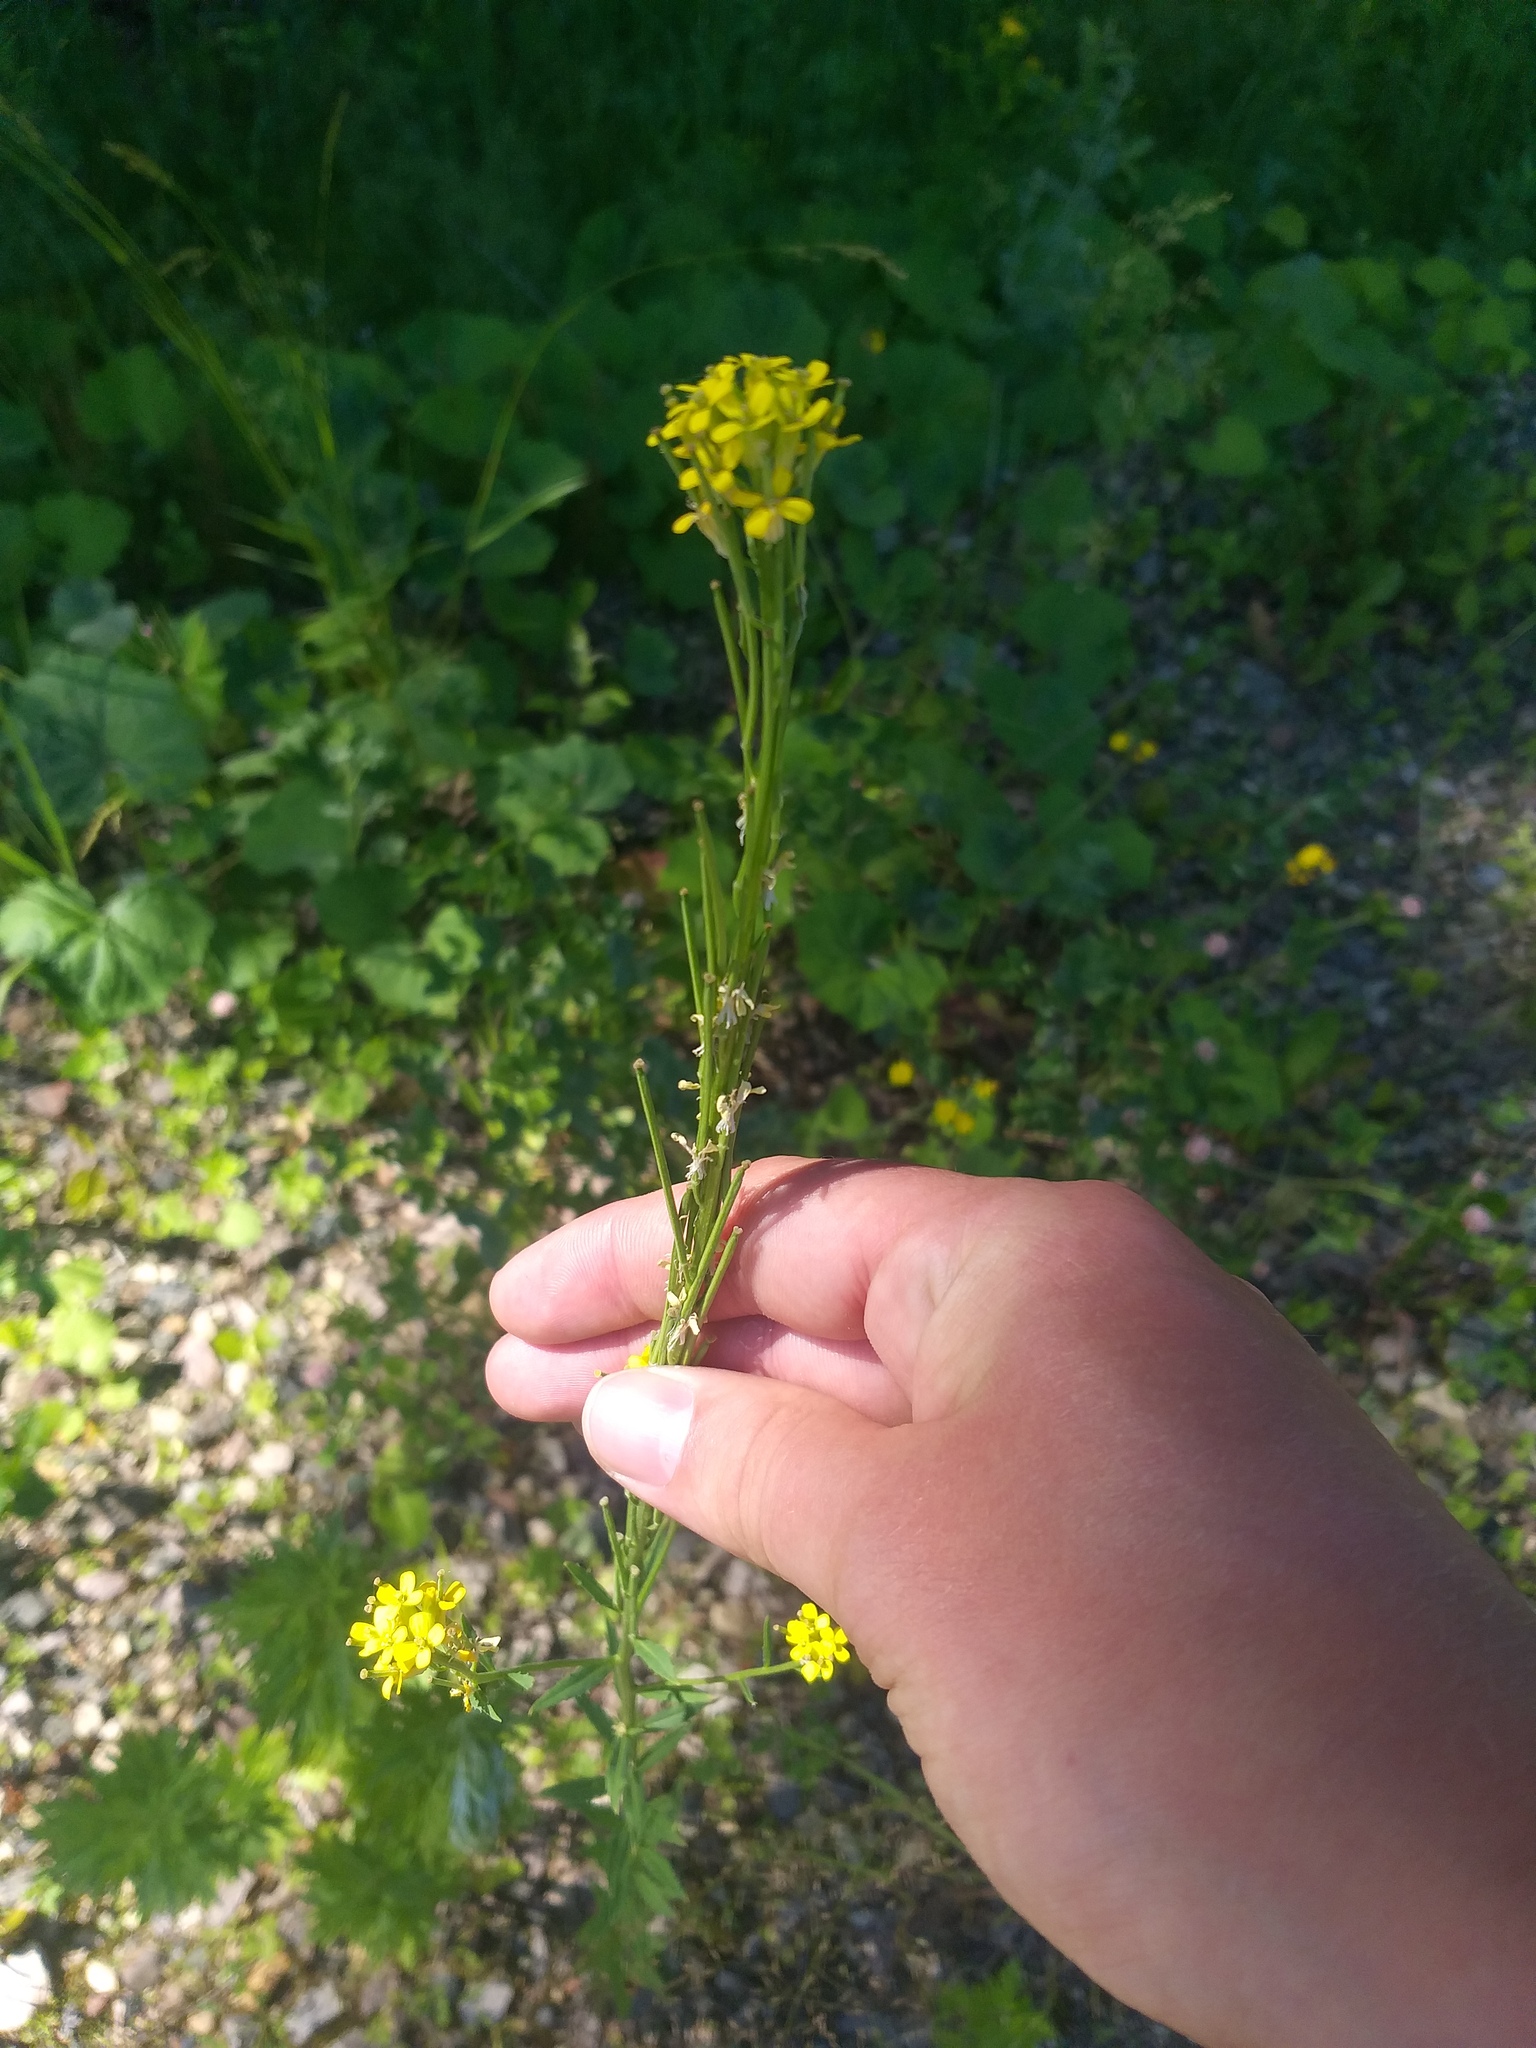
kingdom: Plantae
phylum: Tracheophyta
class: Magnoliopsida
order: Brassicales
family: Brassicaceae
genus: Erysimum
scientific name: Erysimum hieraciifolium
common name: European wallflower
